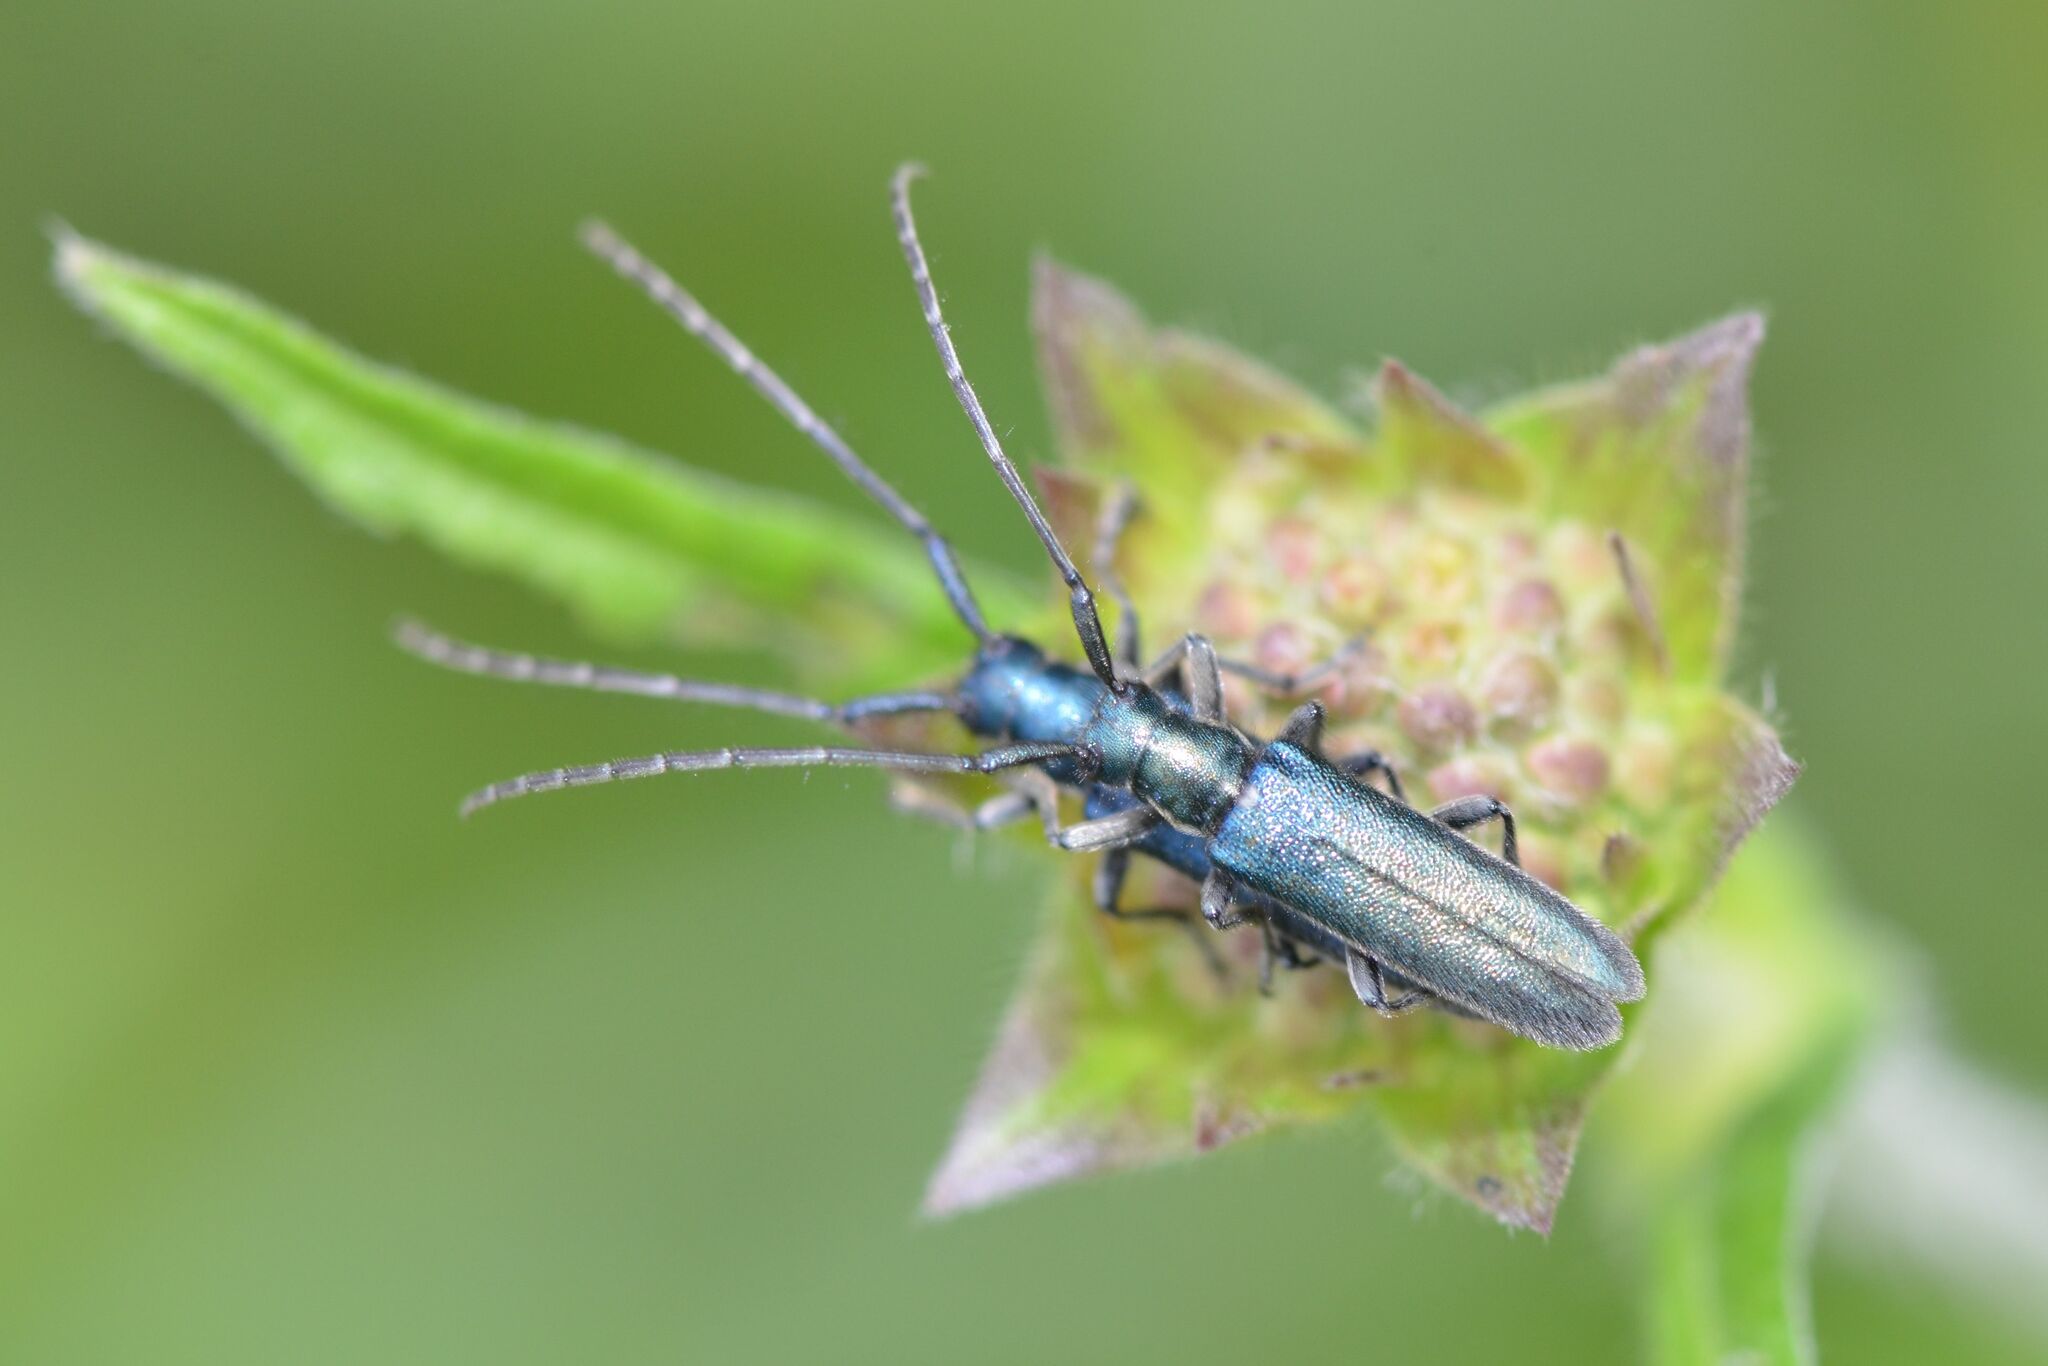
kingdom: Animalia
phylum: Arthropoda
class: Insecta
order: Coleoptera
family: Cerambycidae
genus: Agapanthia
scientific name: Agapanthia intermedia
